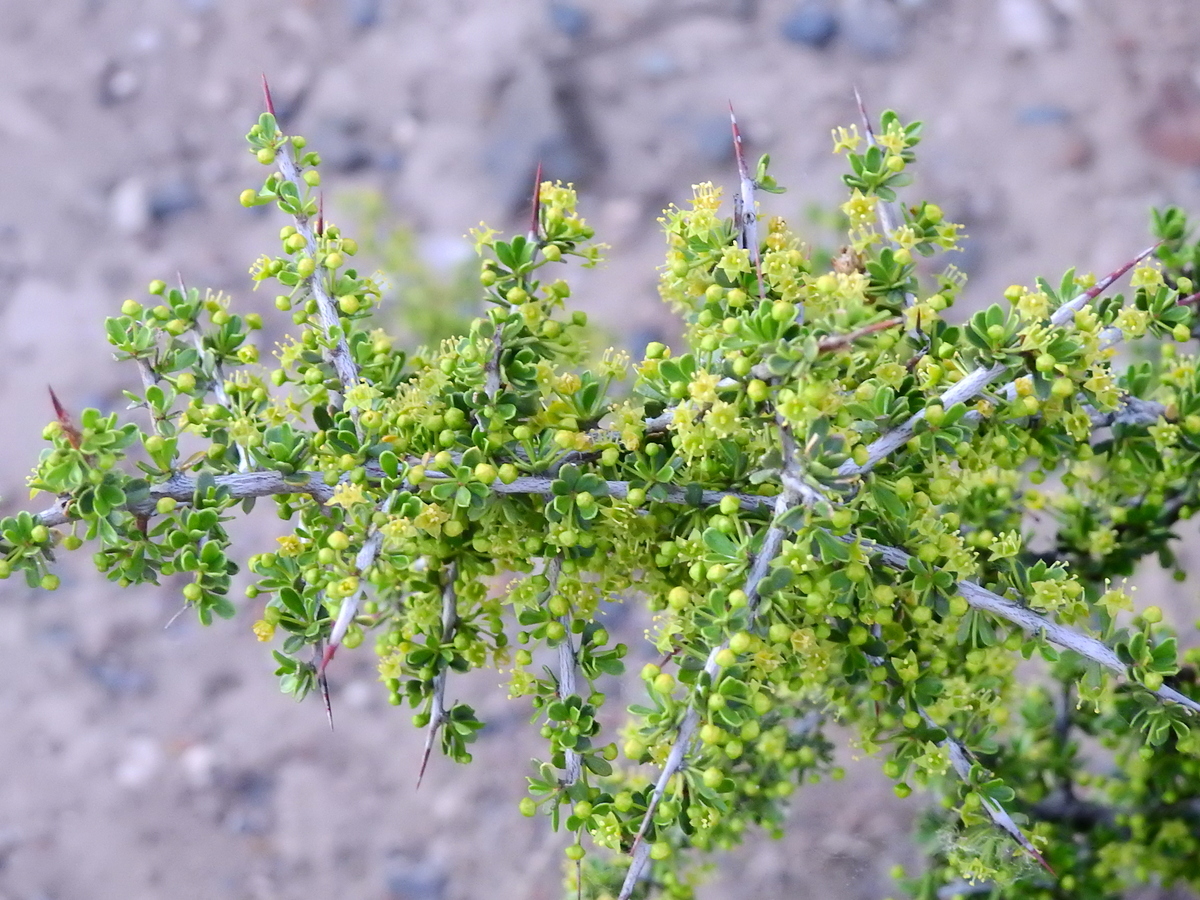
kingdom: Plantae
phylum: Tracheophyta
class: Magnoliopsida
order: Rosales
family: Rhamnaceae
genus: Condalia
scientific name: Condalia microphylla
